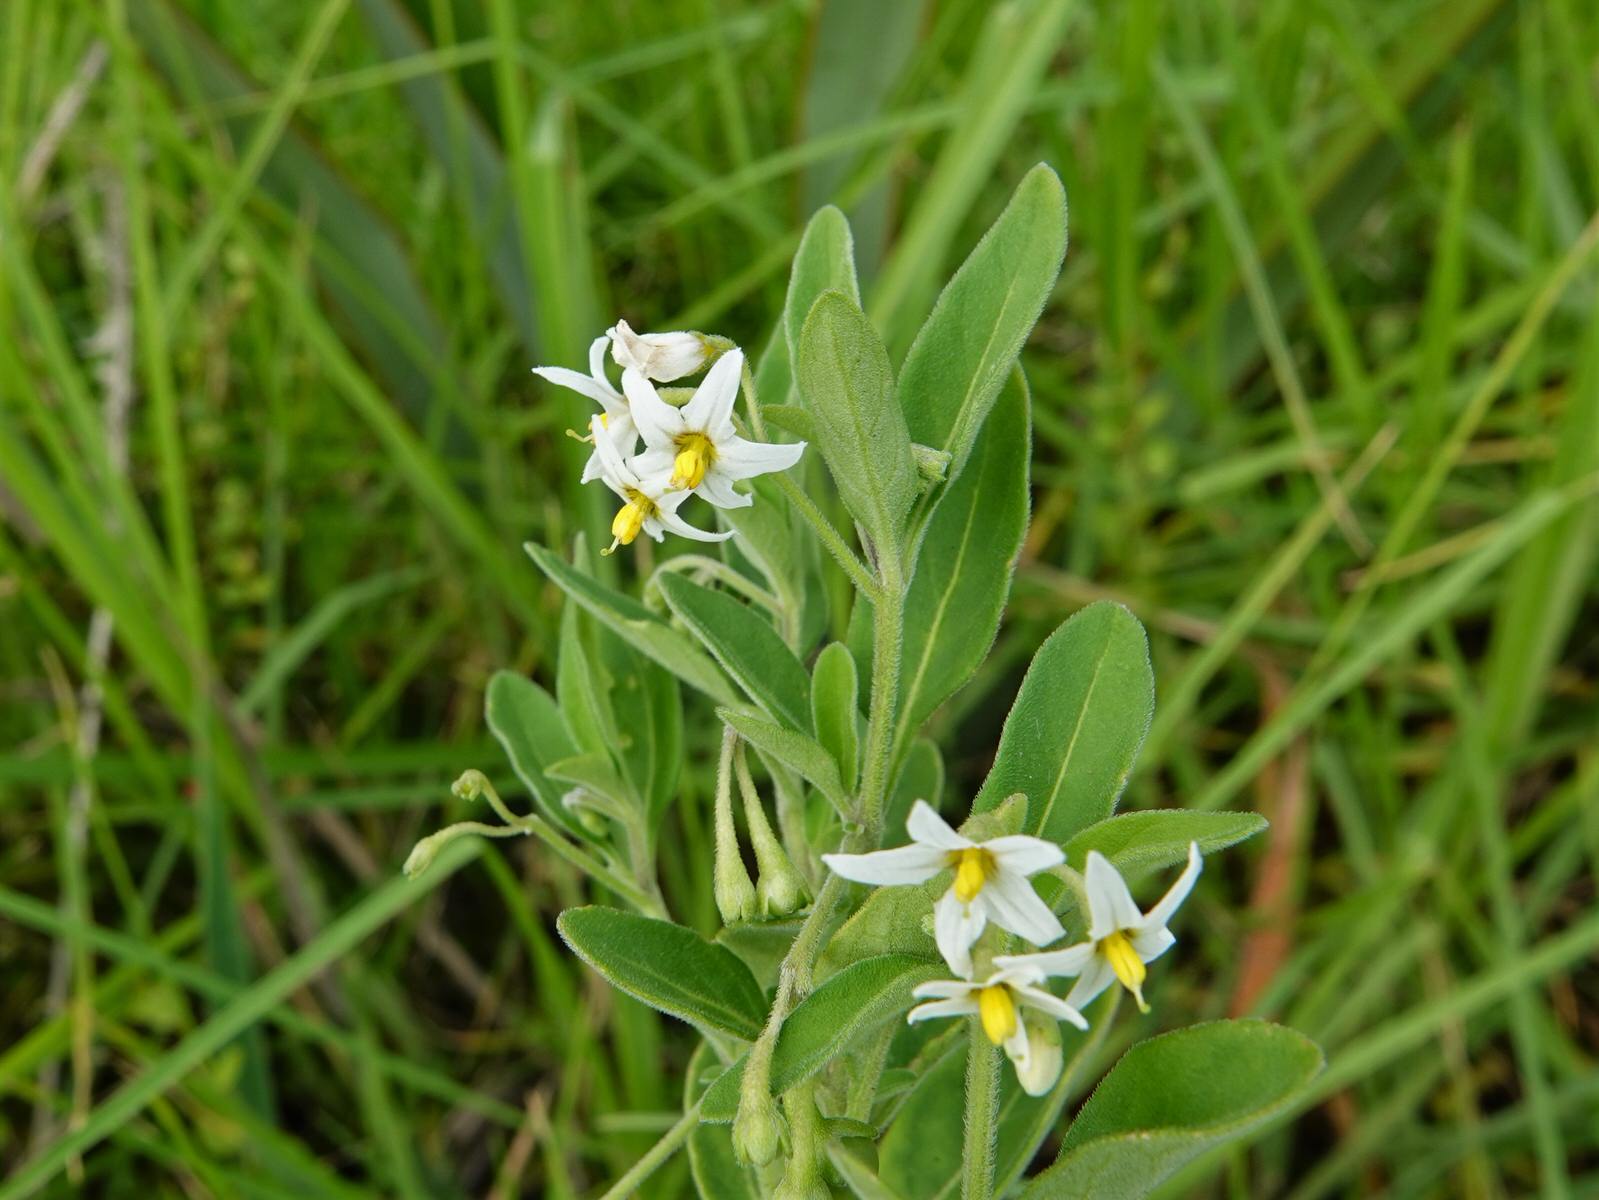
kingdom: Plantae
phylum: Tracheophyta
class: Magnoliopsida
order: Solanales
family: Solanaceae
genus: Solanum
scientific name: Solanum chenopodioides
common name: Tall nightshade
